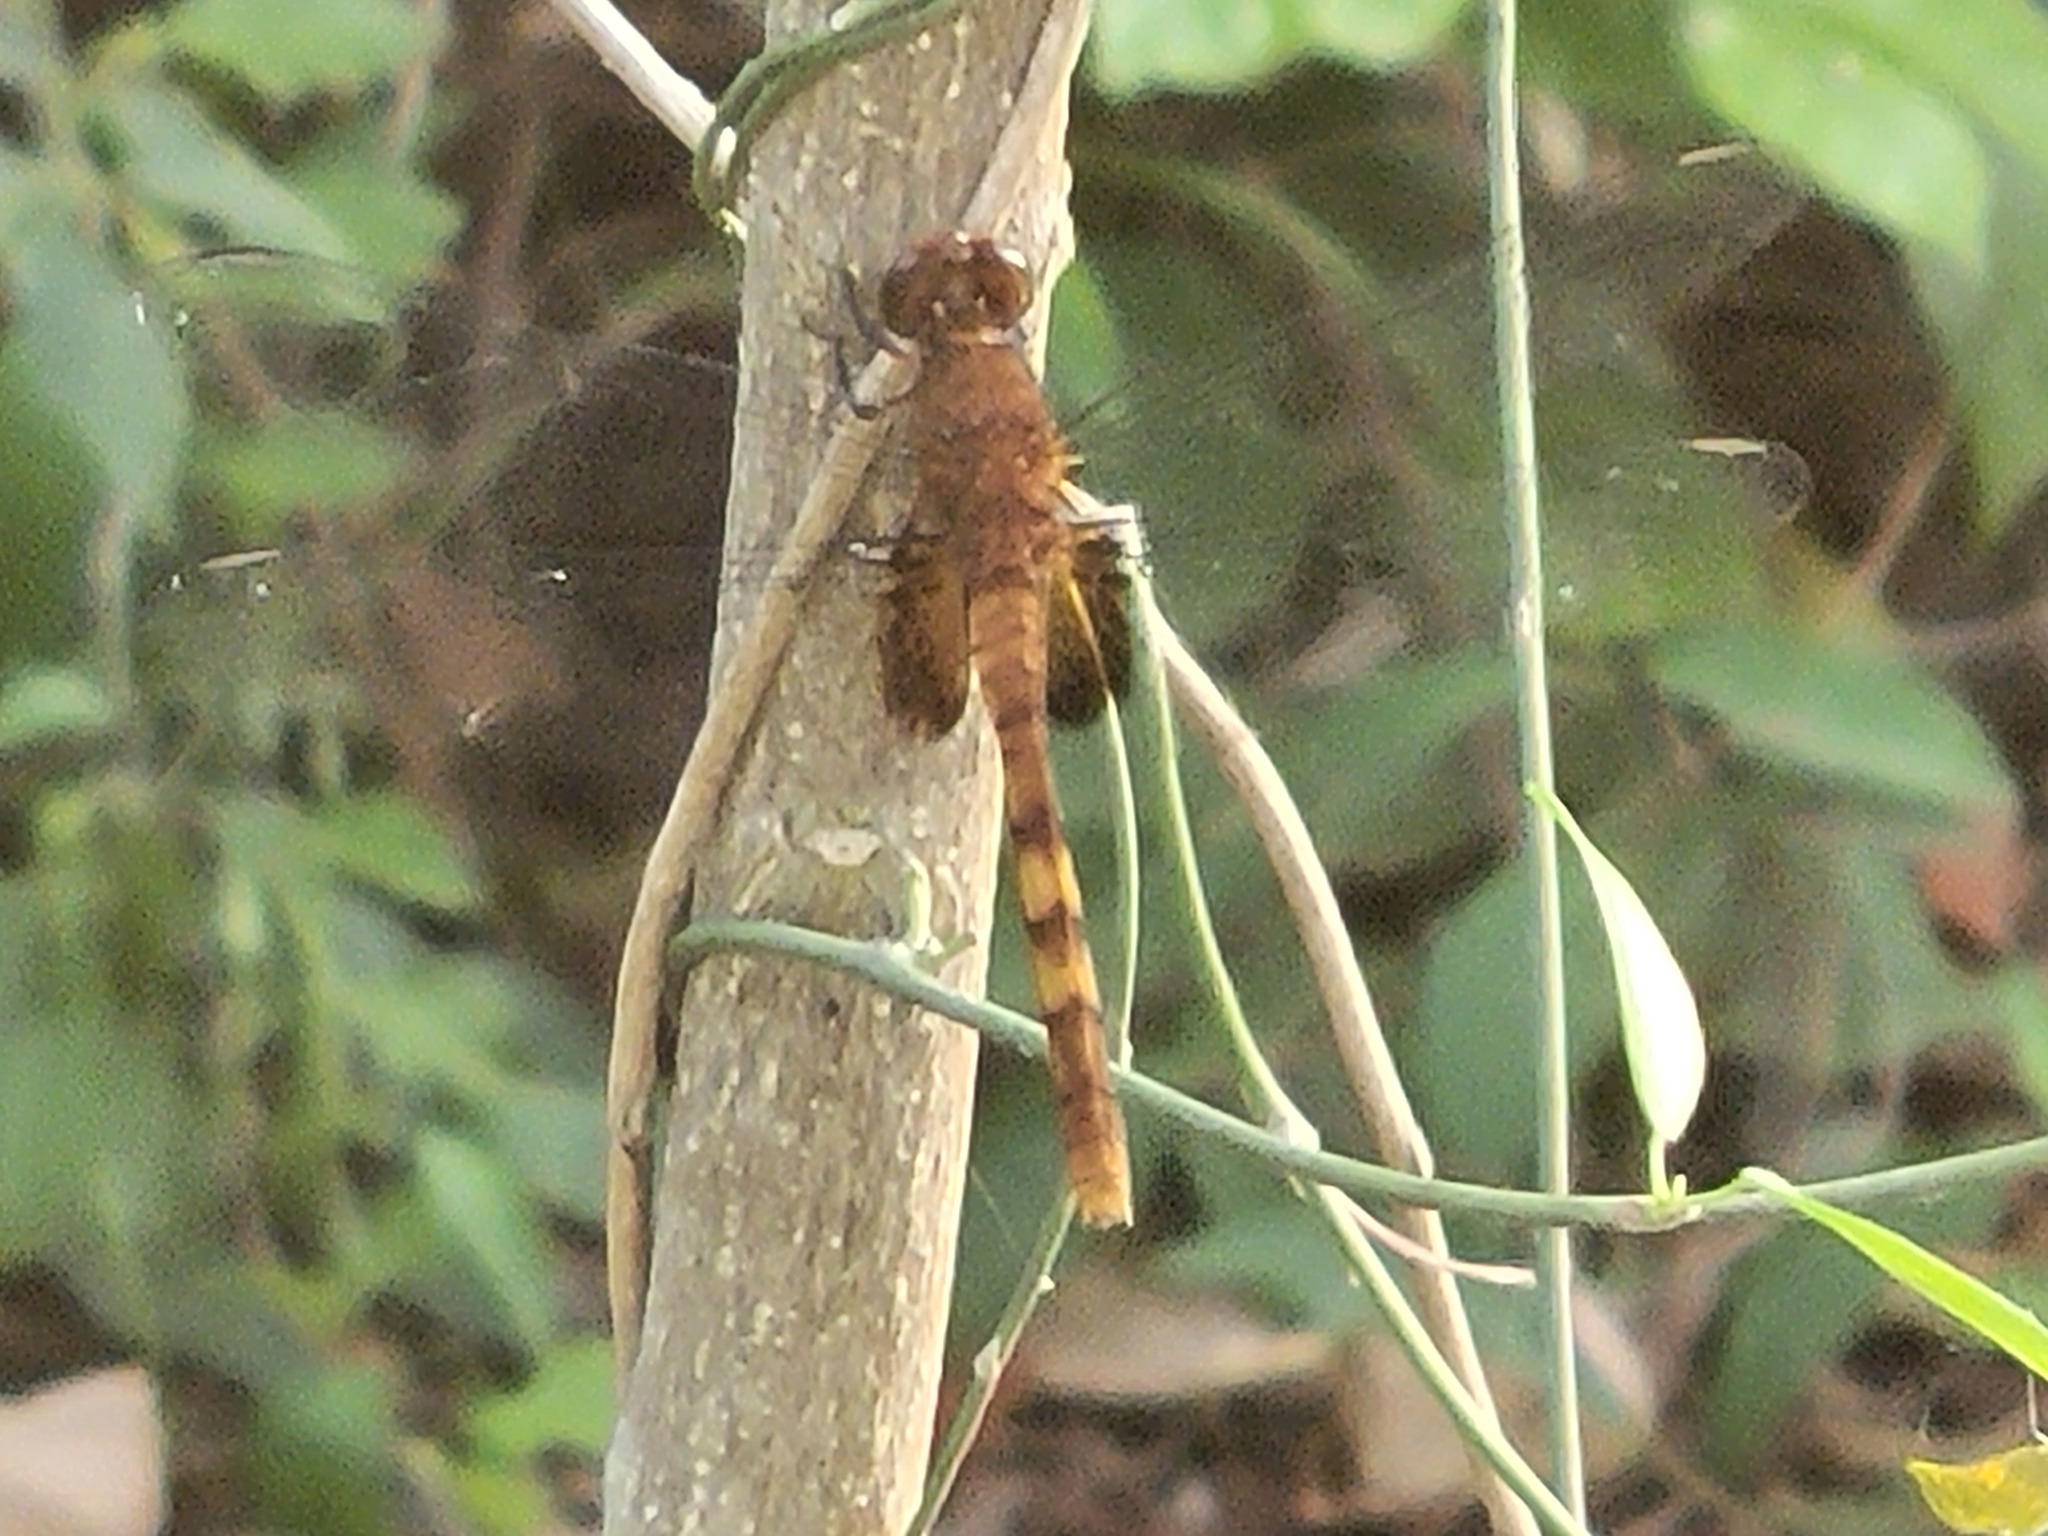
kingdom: Animalia
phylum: Arthropoda
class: Insecta
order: Odonata
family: Libellulidae
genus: Erythemis
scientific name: Erythemis mithroides
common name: Claret pondhawk
